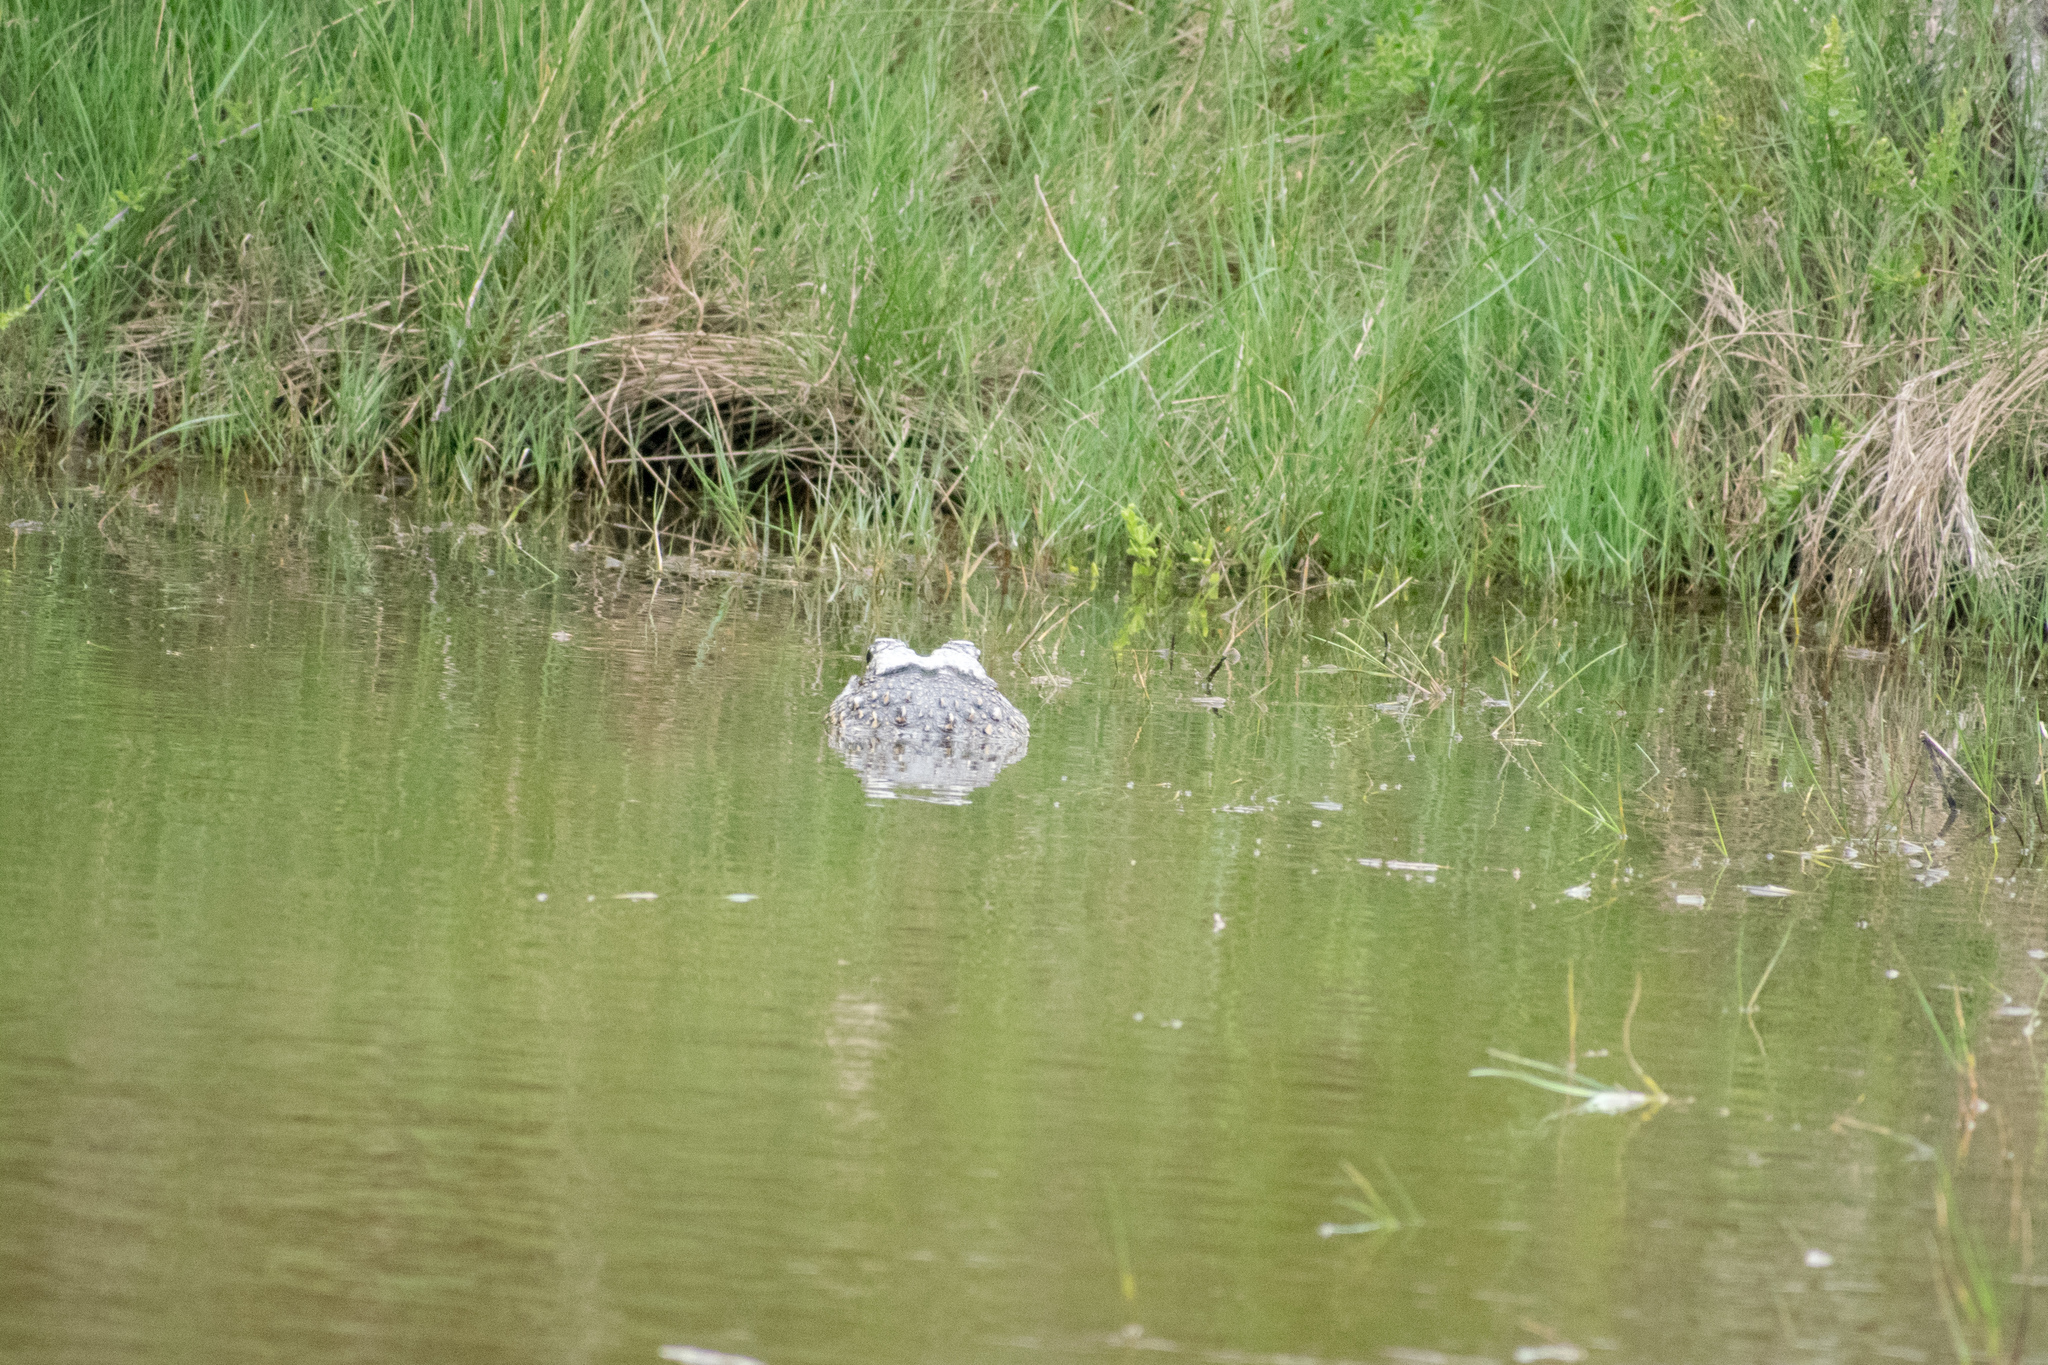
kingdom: Animalia
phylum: Chordata
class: Crocodylia
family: Alligatoridae
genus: Alligator
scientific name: Alligator mississippiensis
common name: American alligator
